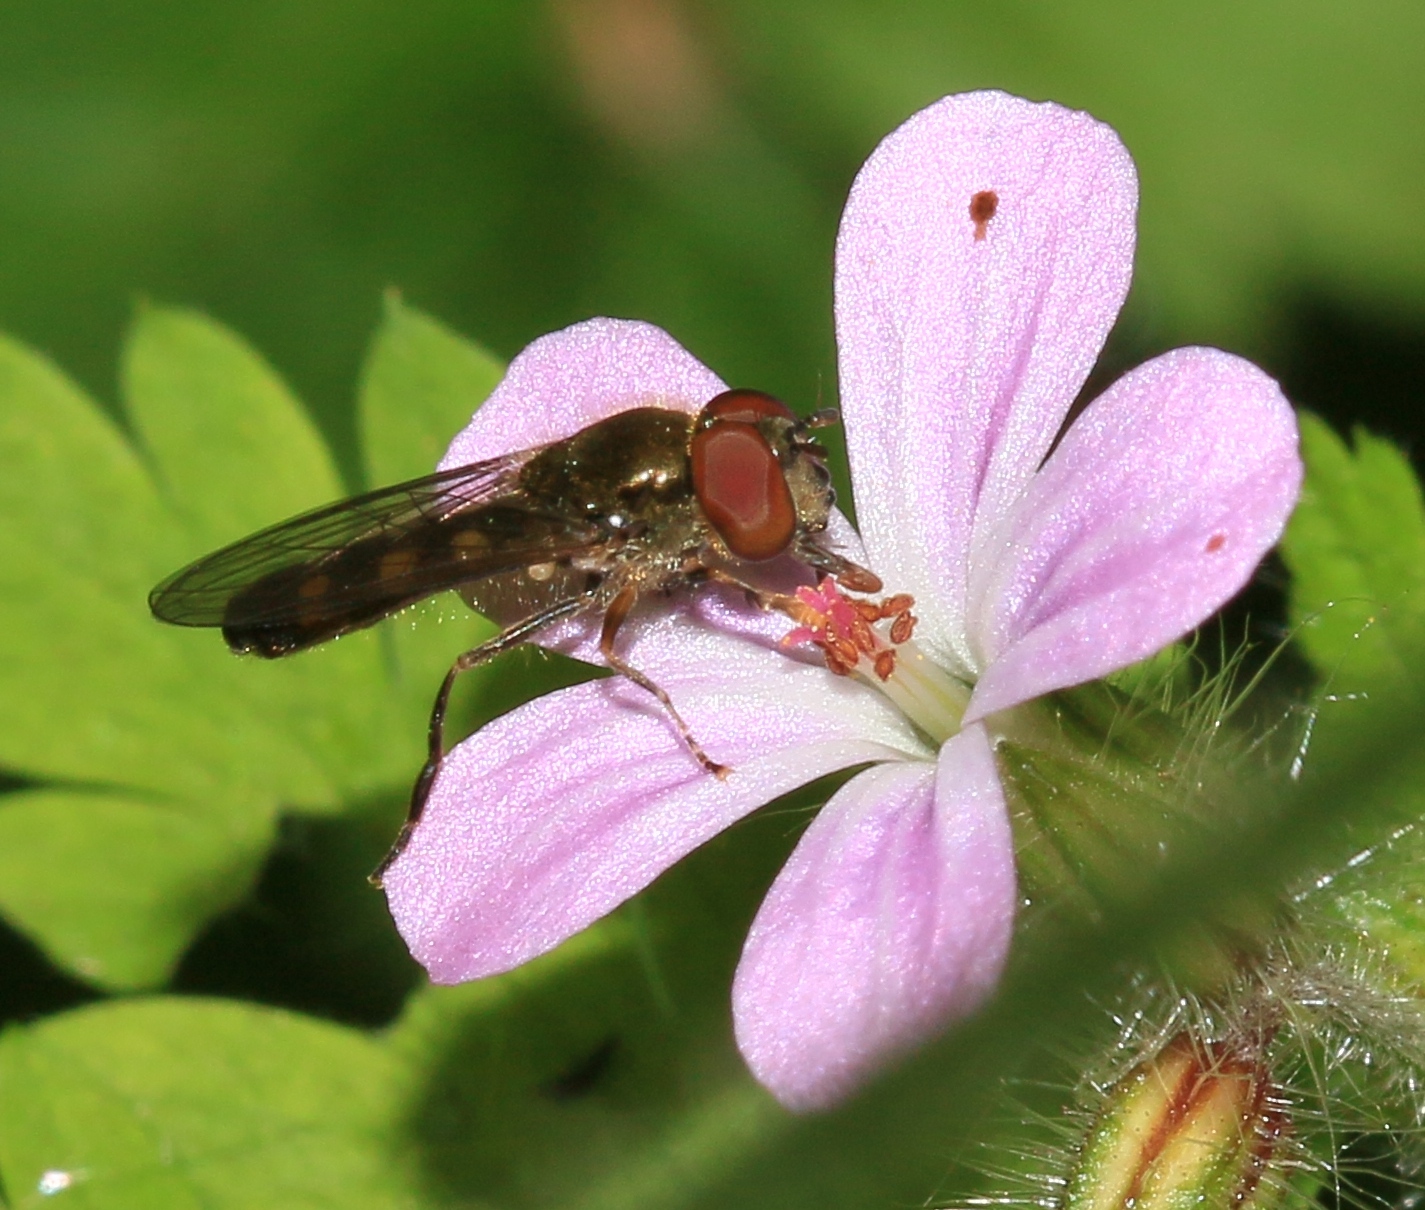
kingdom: Animalia
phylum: Arthropoda
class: Insecta
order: Diptera
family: Syrphidae
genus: Platycheirus
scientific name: Platycheirus scutatus
